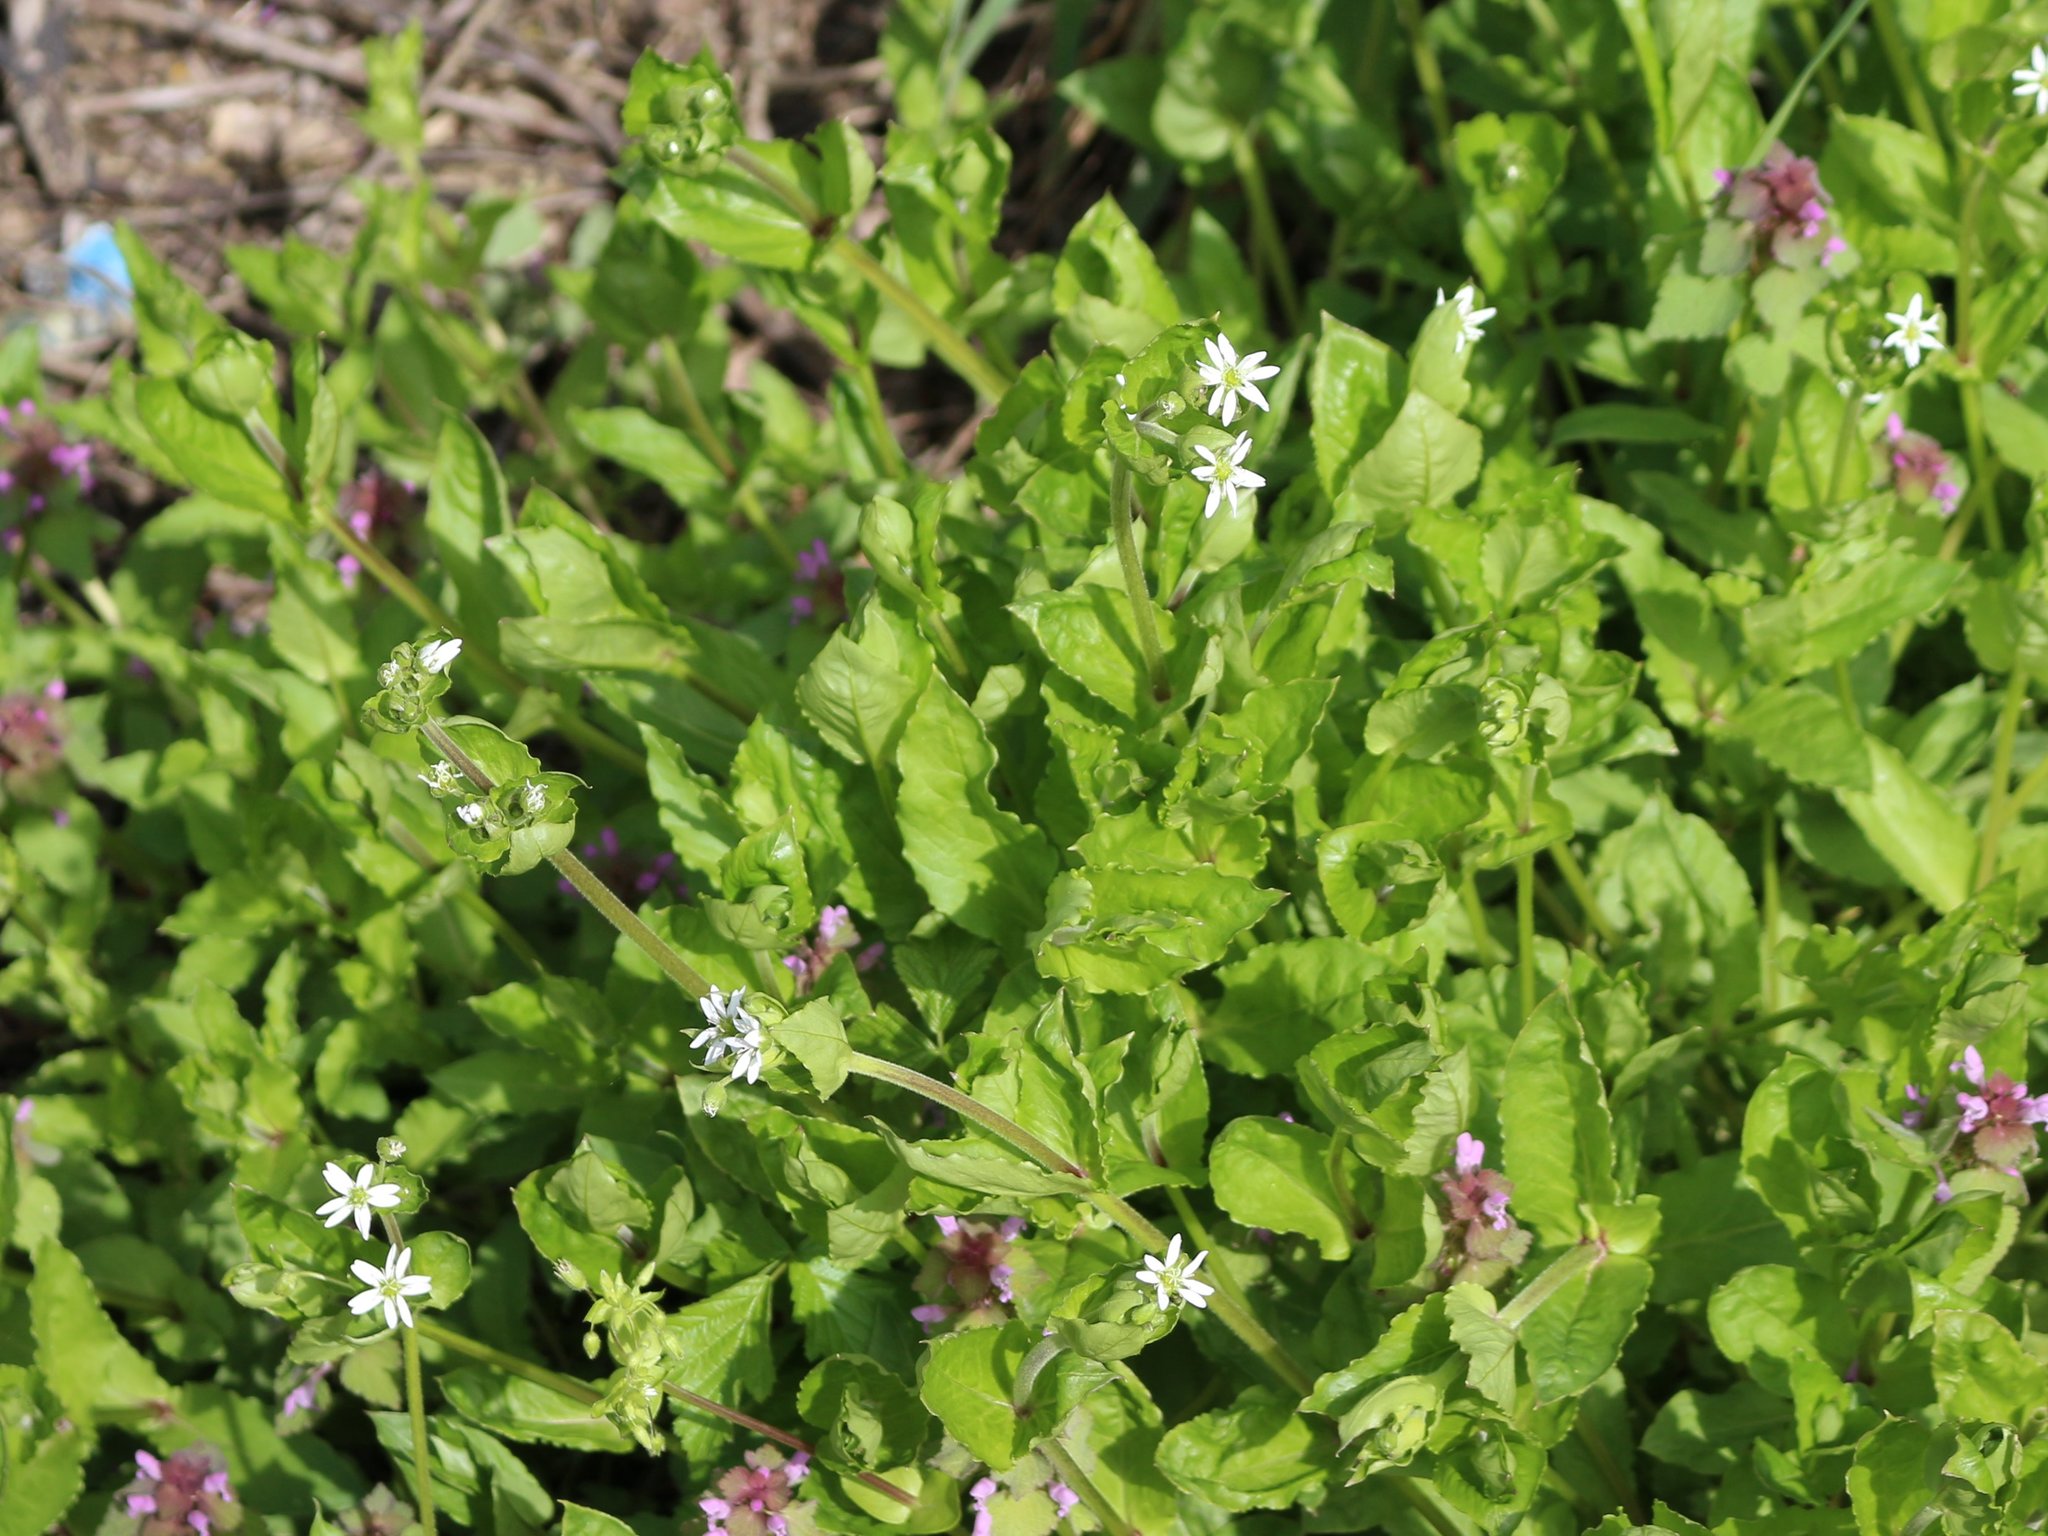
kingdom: Plantae
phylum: Tracheophyta
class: Magnoliopsida
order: Caryophyllales
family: Caryophyllaceae
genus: Stellaria
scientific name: Stellaria aquatica
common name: Water chickweed
